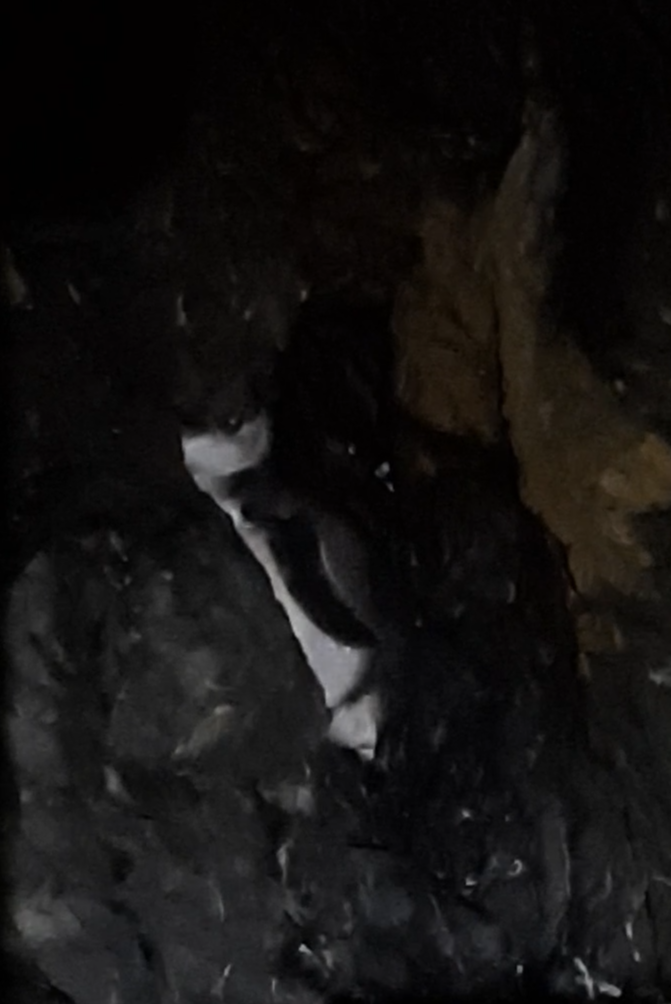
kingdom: Animalia
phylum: Chordata
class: Aves
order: Sphenisciformes
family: Spheniscidae
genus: Eudyptula
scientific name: Eudyptula minor
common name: Little penguin
